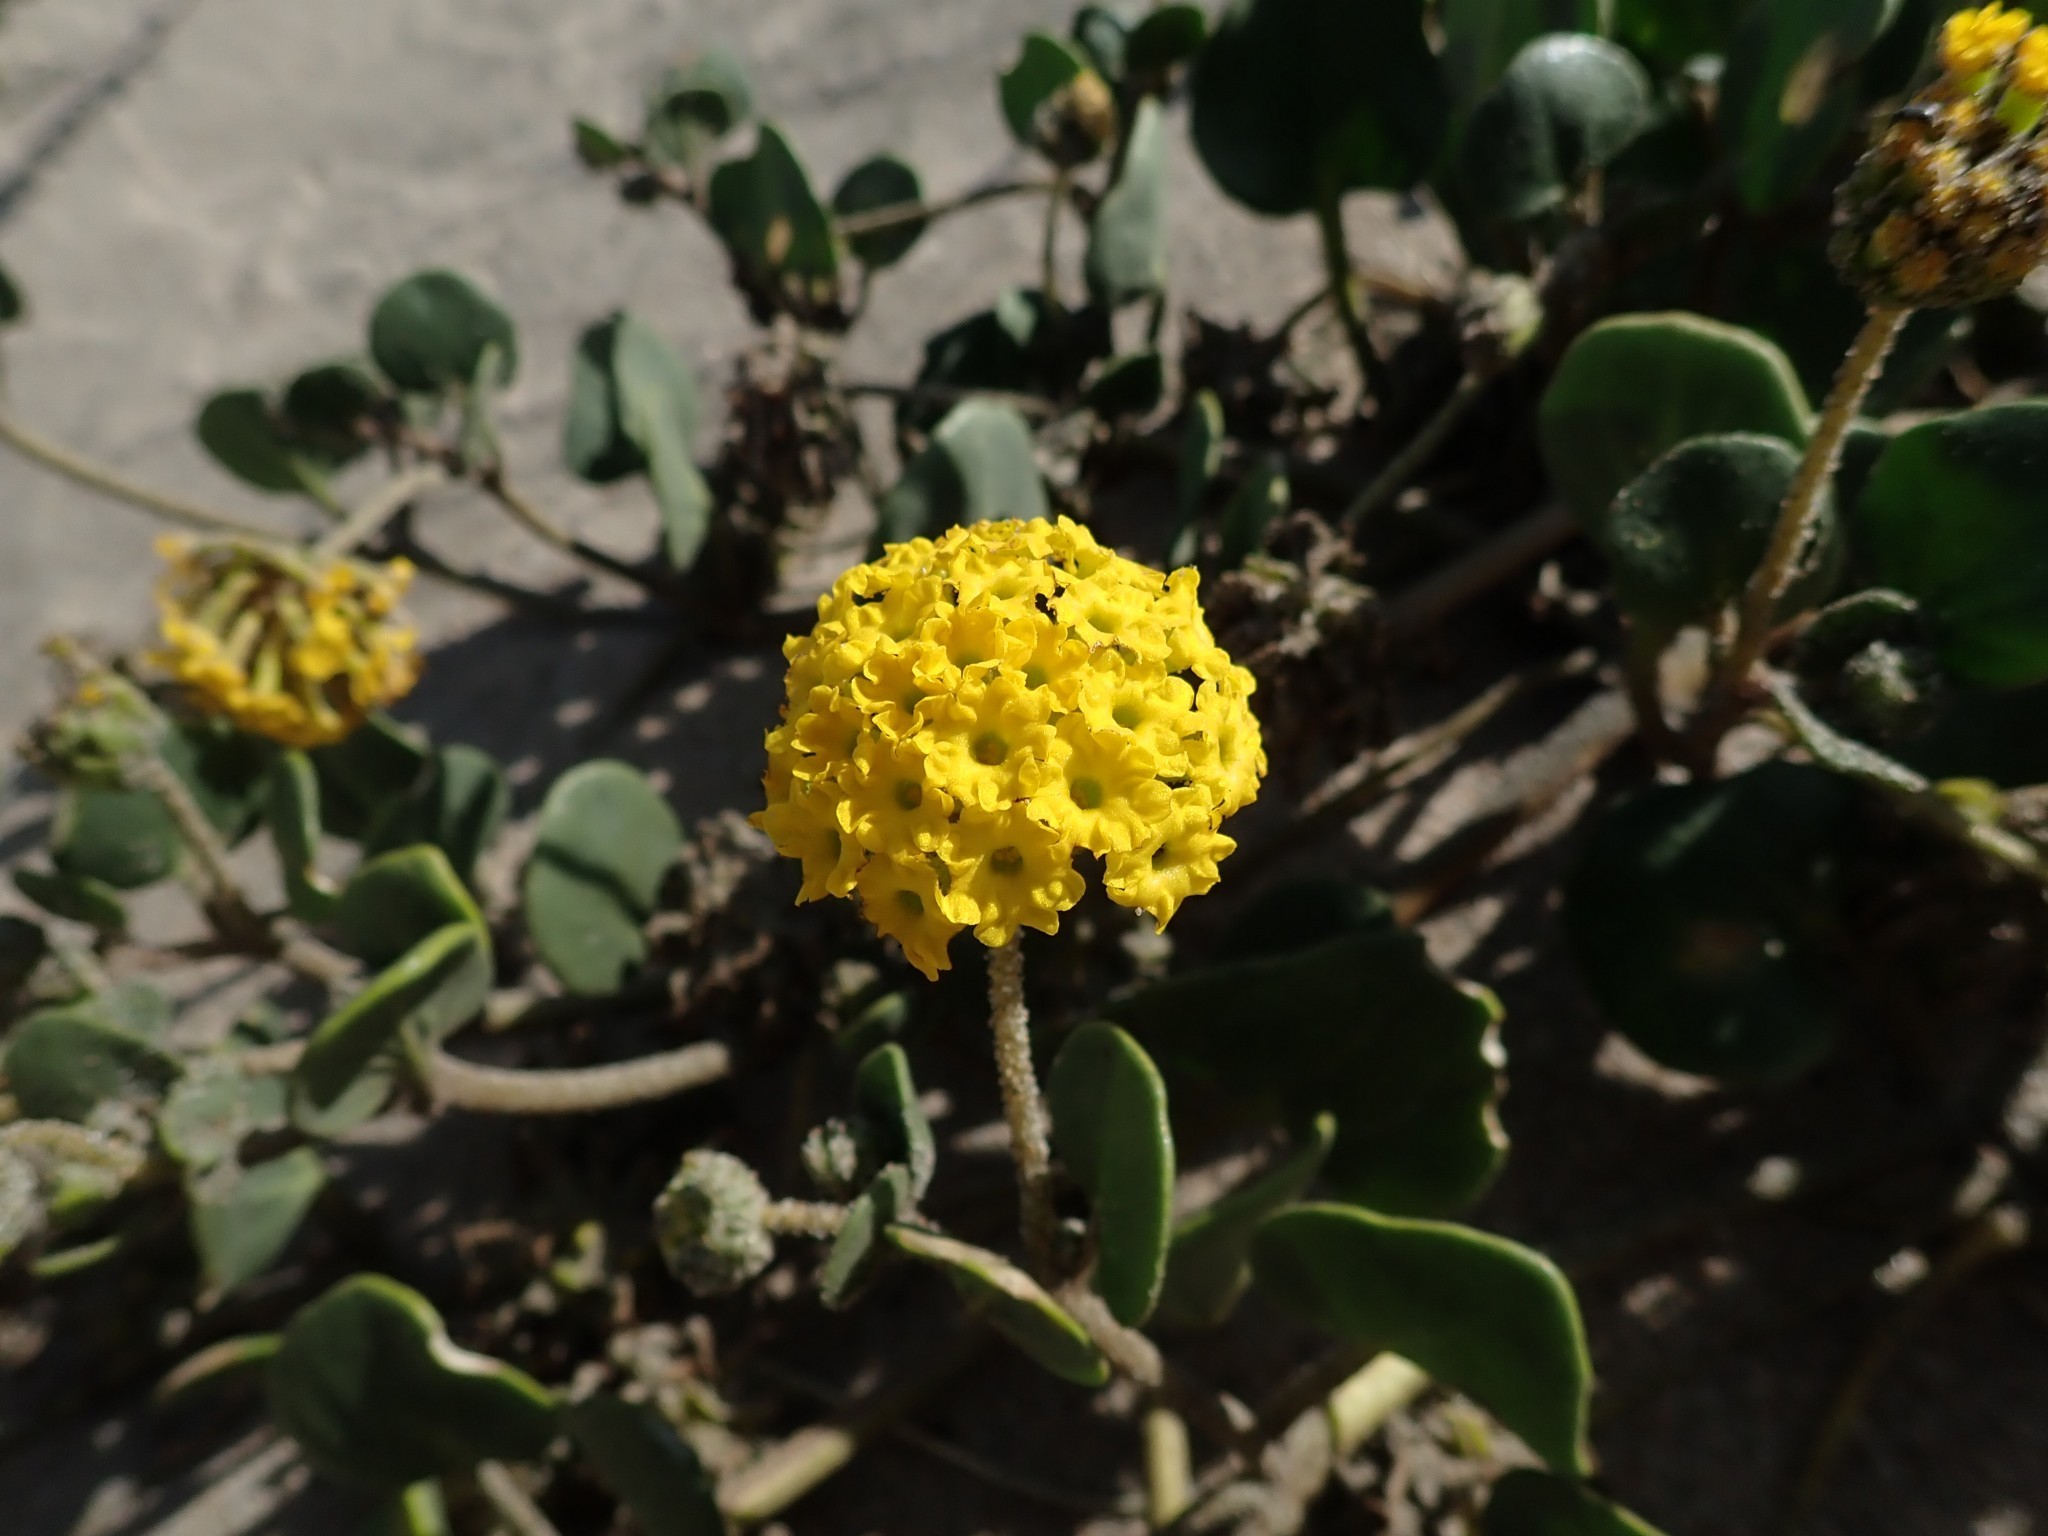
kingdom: Plantae
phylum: Tracheophyta
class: Magnoliopsida
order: Caryophyllales
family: Nyctaginaceae
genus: Abronia
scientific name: Abronia latifolia
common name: Yellow sand-verbena
